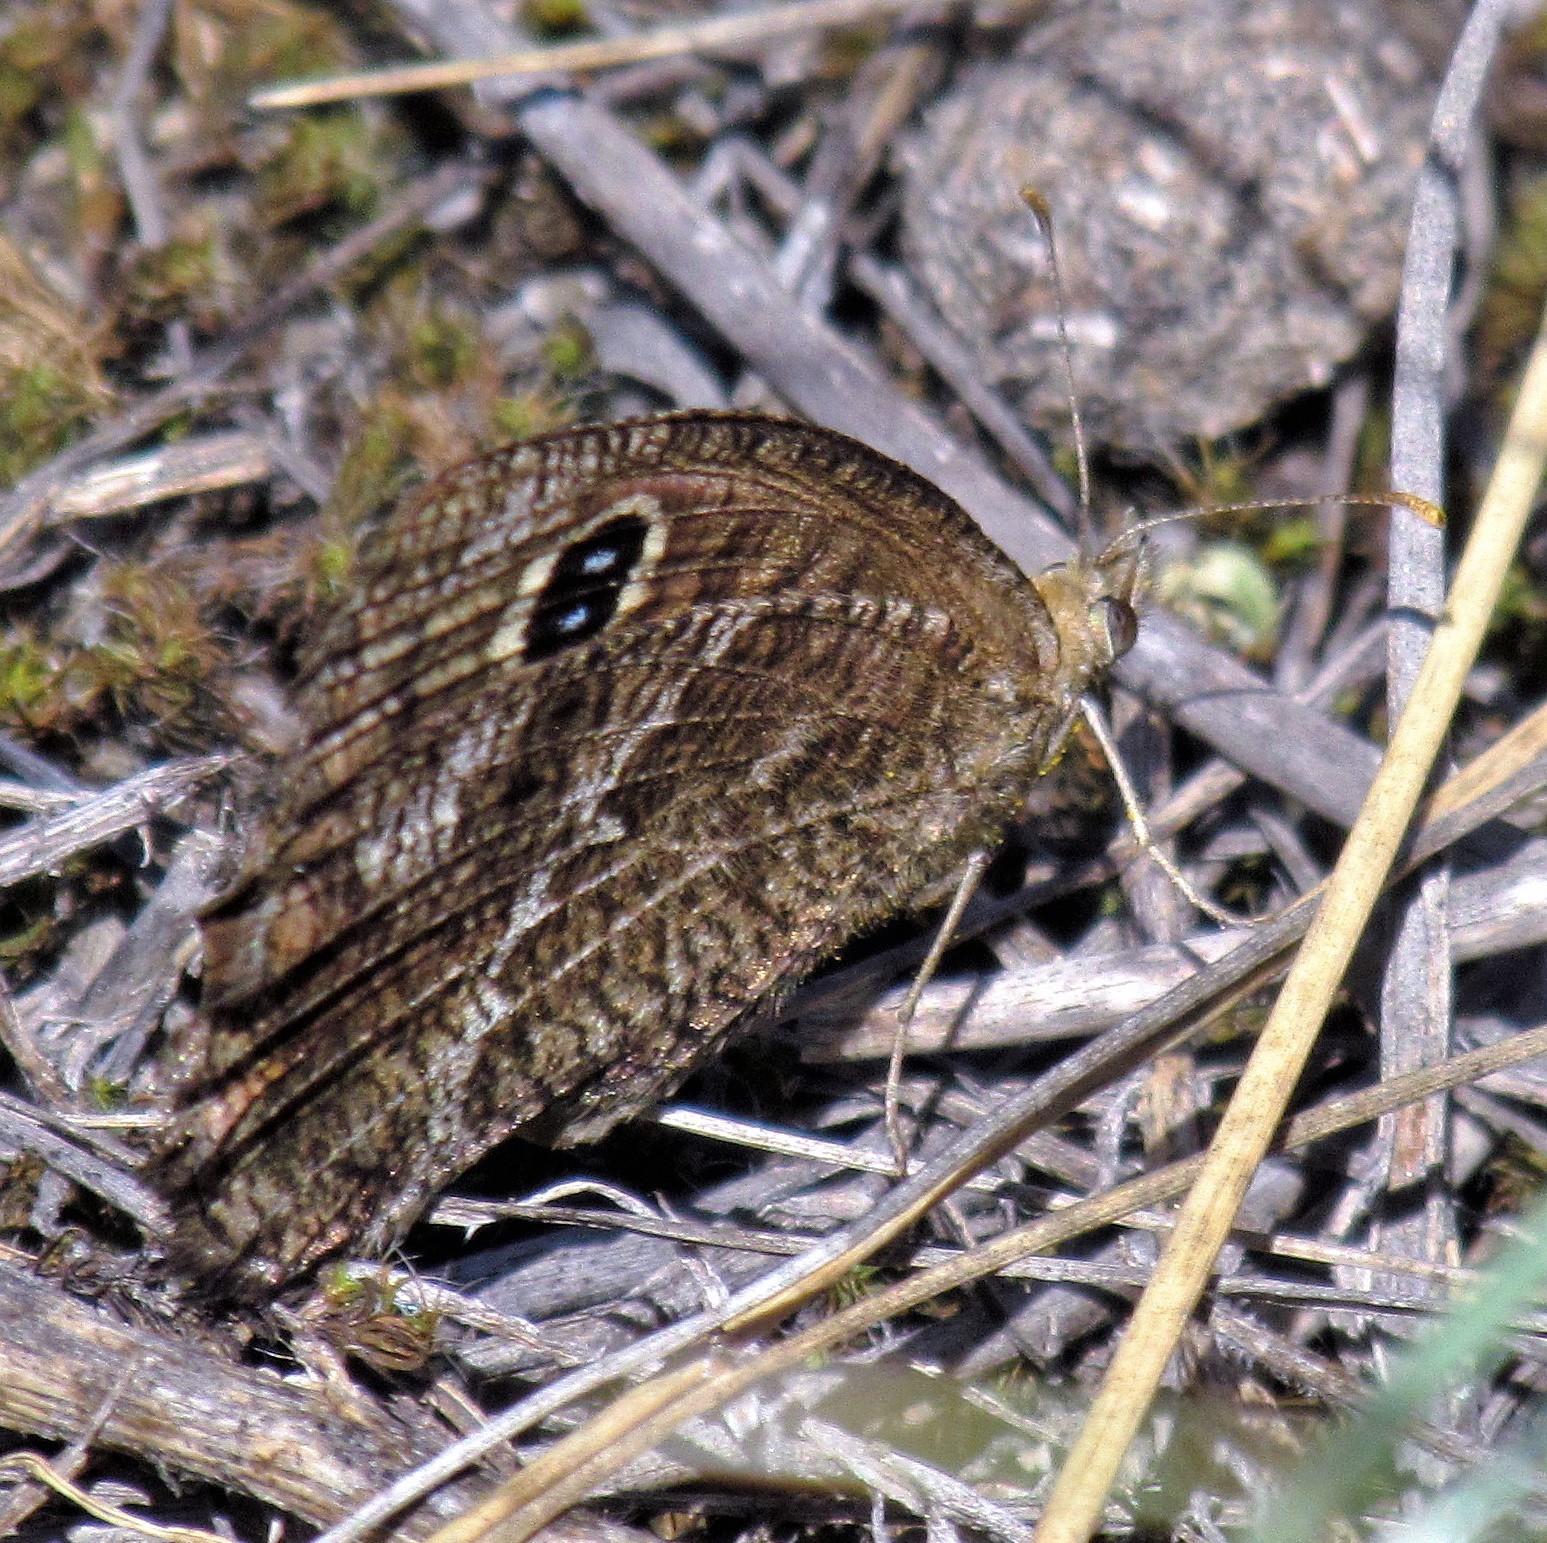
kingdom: Animalia
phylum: Arthropoda
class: Insecta
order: Lepidoptera
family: Nymphalidae
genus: Pampasatyrus
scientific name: Pampasatyrus quies
